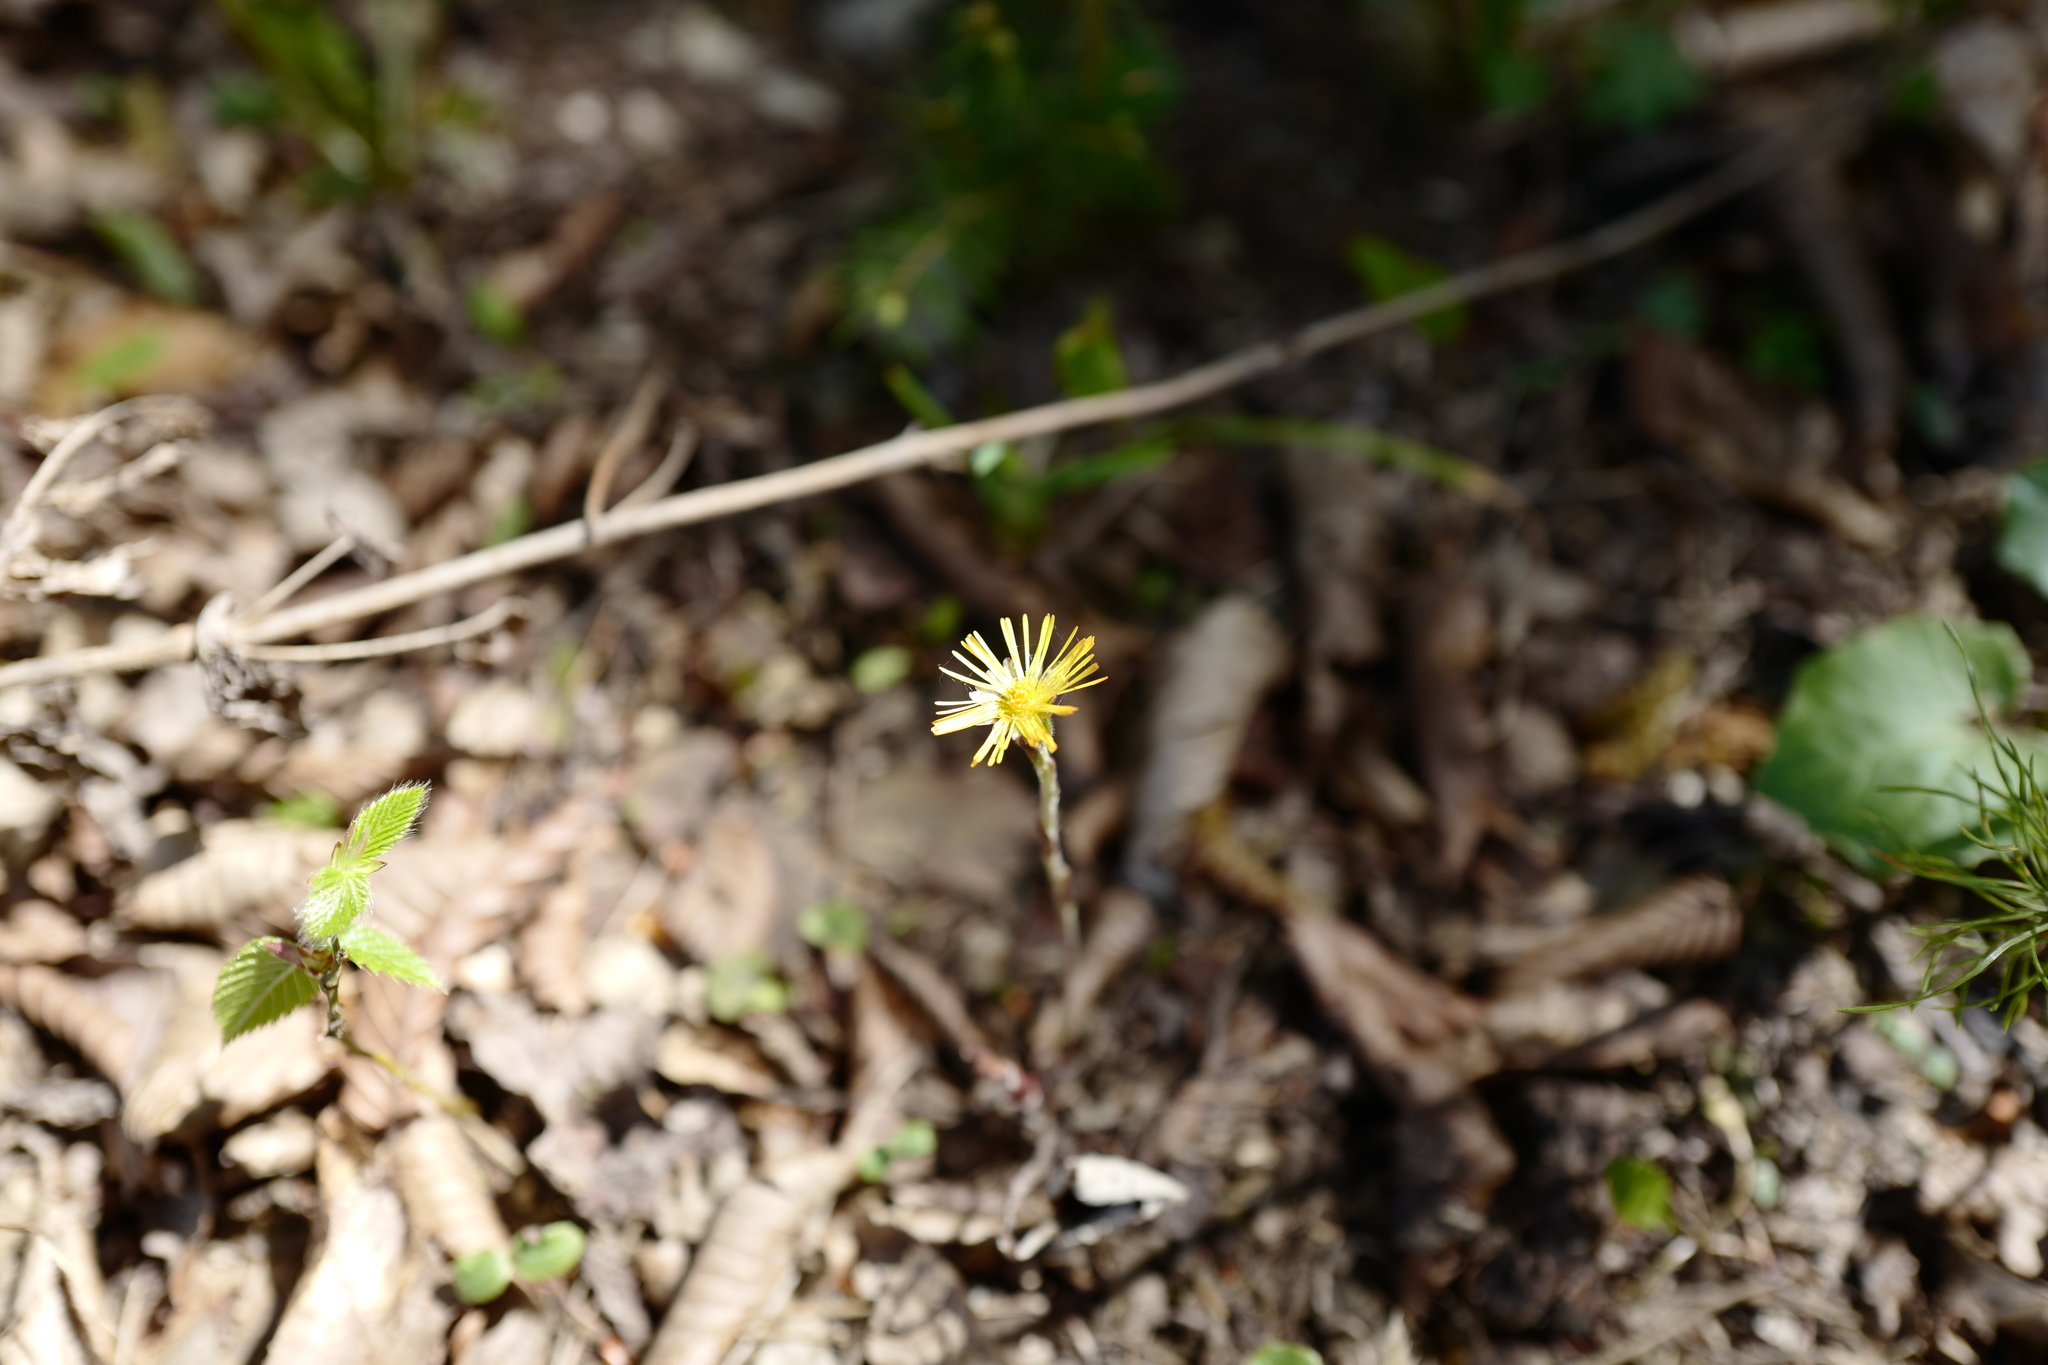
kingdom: Plantae
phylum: Tracheophyta
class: Magnoliopsida
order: Asterales
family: Asteraceae
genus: Tussilago
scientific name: Tussilago farfara
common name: Coltsfoot
